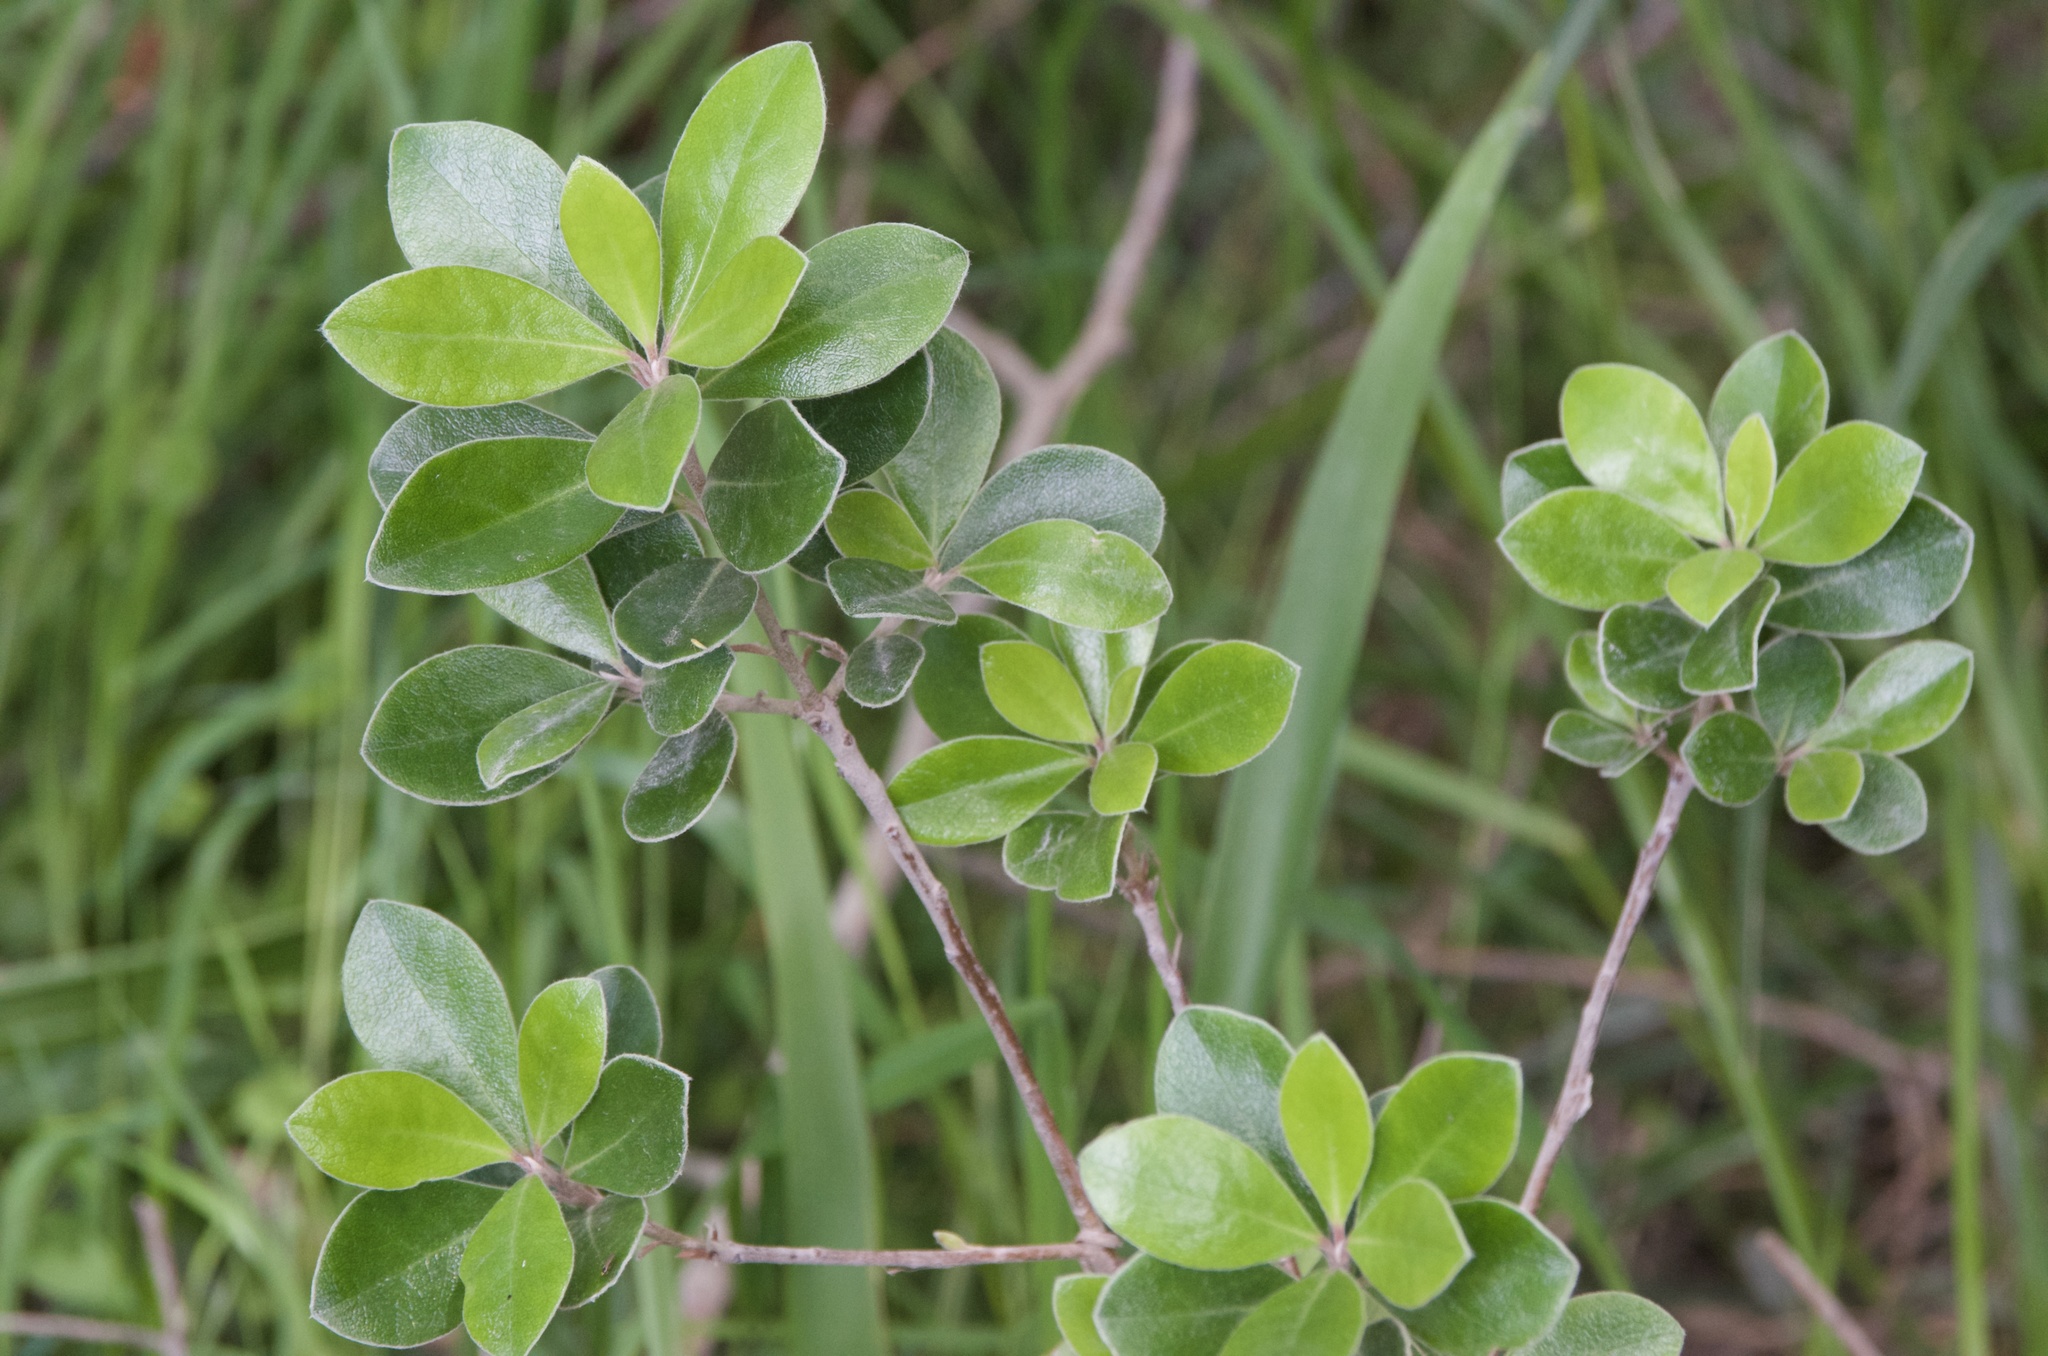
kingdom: Plantae
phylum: Tracheophyta
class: Magnoliopsida
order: Apiales
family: Pittosporaceae
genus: Pittosporum
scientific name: Pittosporum crassifolium
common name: Karo
